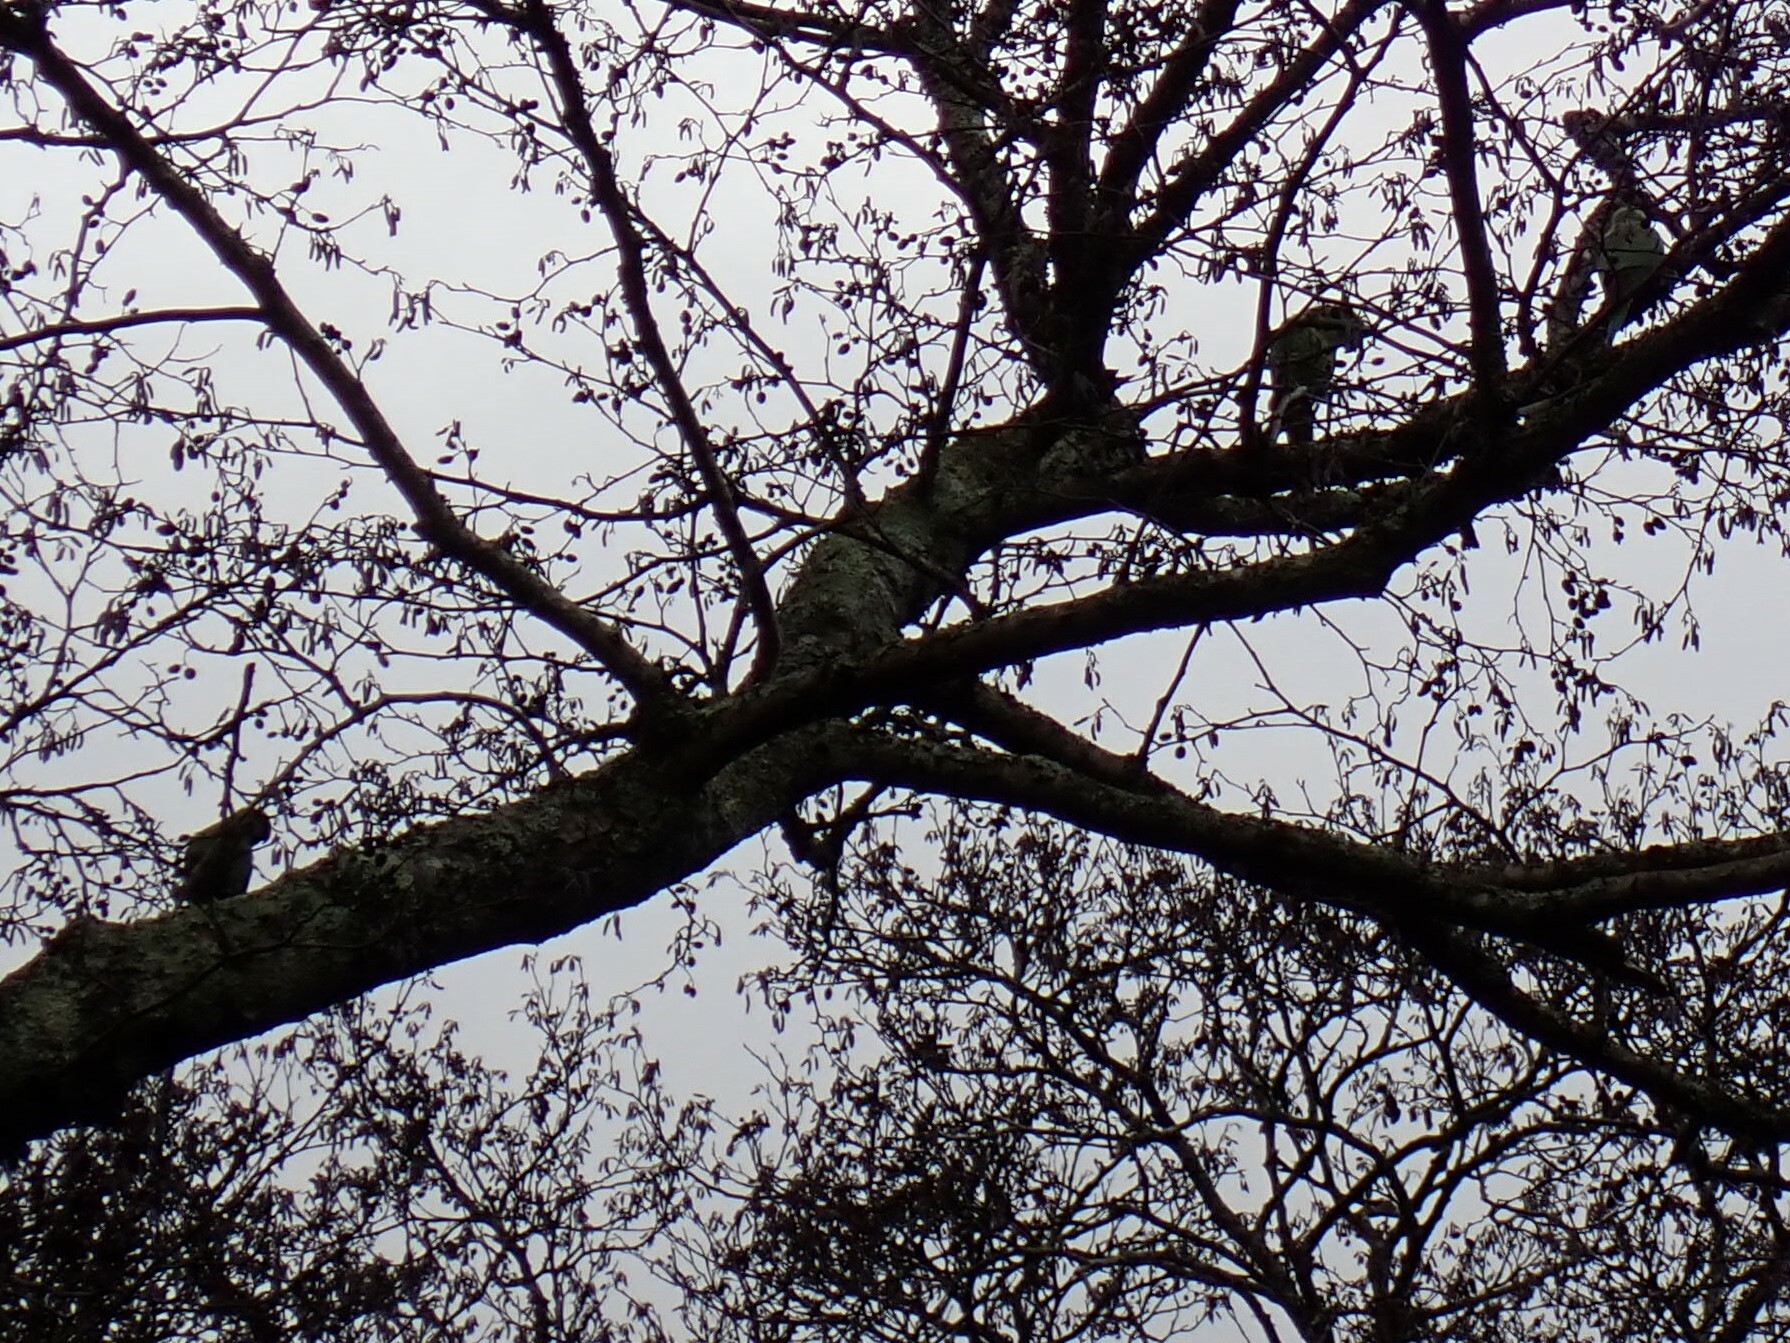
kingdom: Animalia
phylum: Chordata
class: Aves
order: Psittaciformes
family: Psittacidae
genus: Psittacula
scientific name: Psittacula krameri
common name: Rose-ringed parakeet
